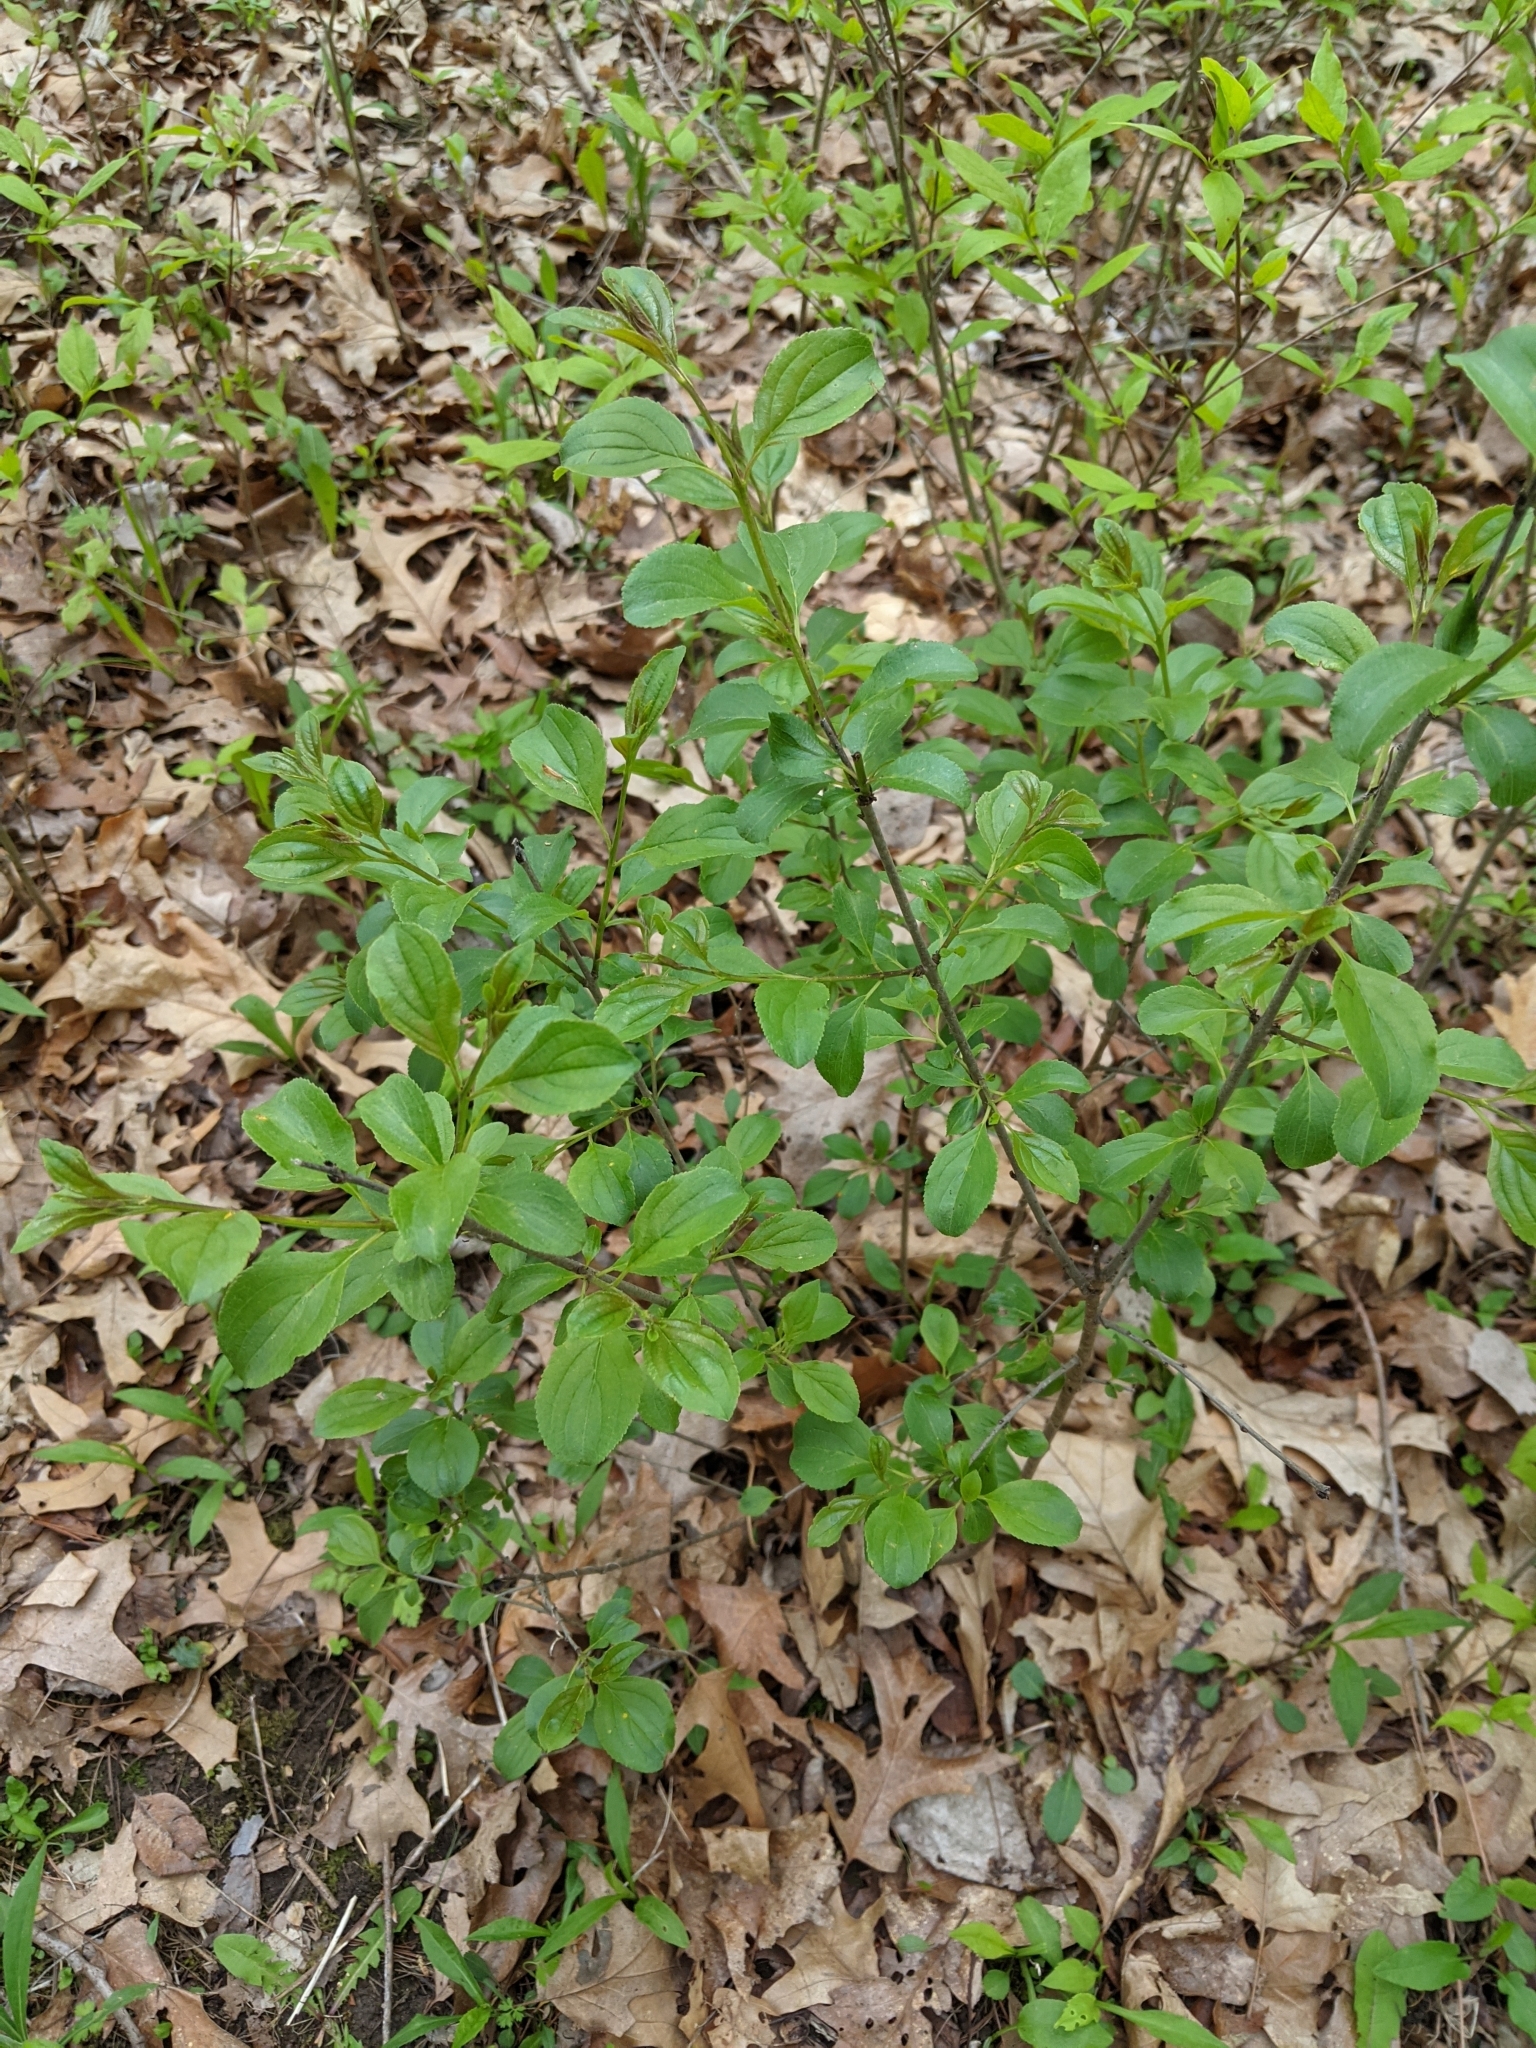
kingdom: Plantae
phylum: Tracheophyta
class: Magnoliopsida
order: Rosales
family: Rhamnaceae
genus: Rhamnus
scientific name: Rhamnus cathartica
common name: Common buckthorn
